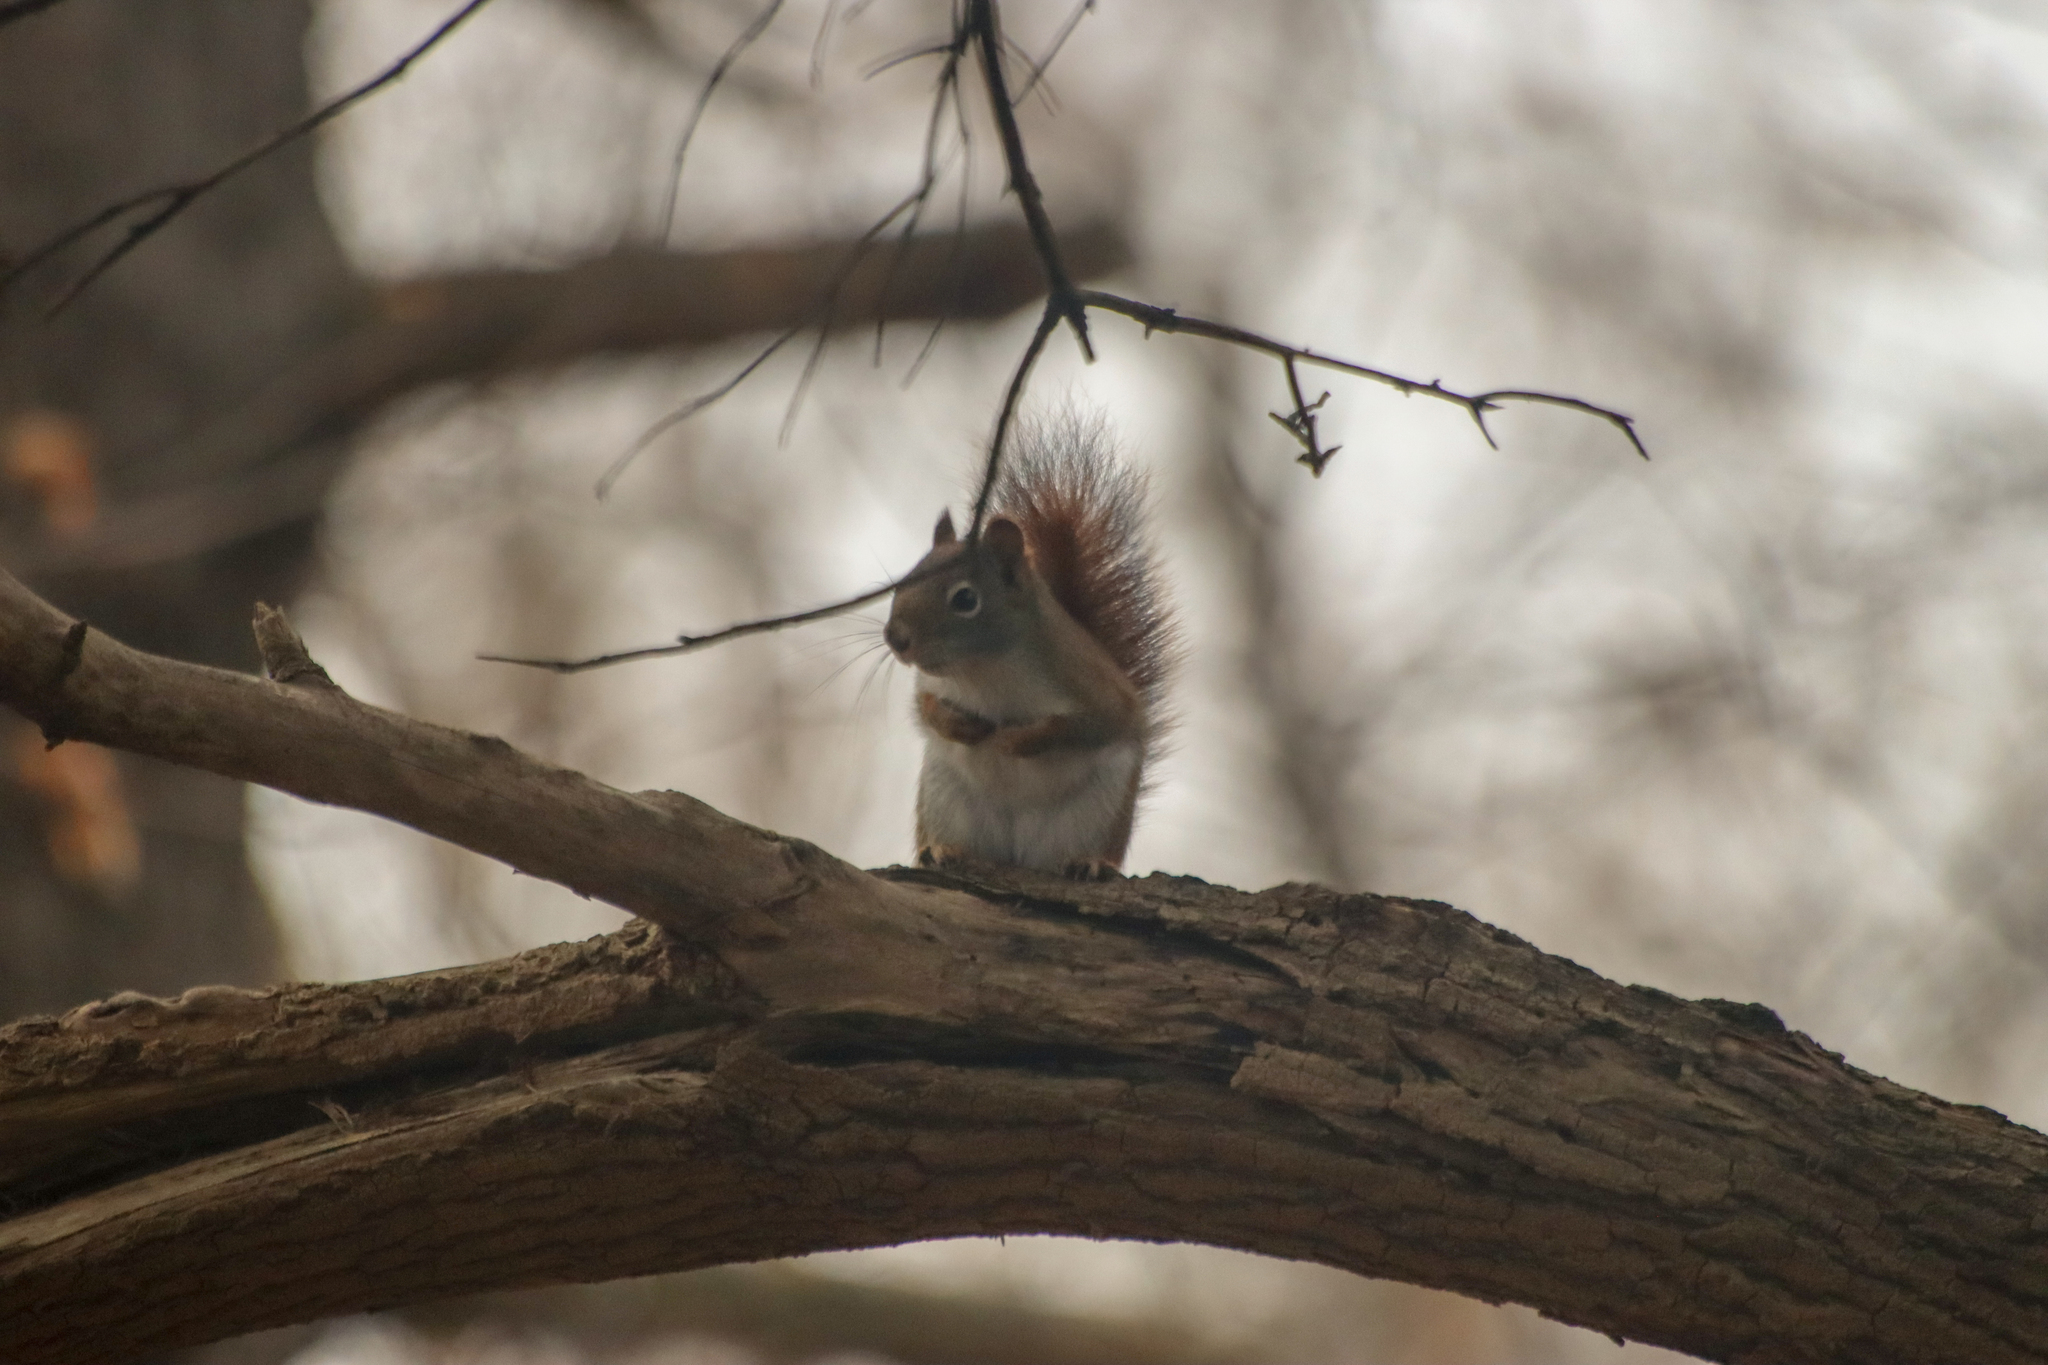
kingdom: Animalia
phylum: Chordata
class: Mammalia
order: Rodentia
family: Sciuridae
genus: Tamiasciurus
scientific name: Tamiasciurus hudsonicus
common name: Red squirrel
